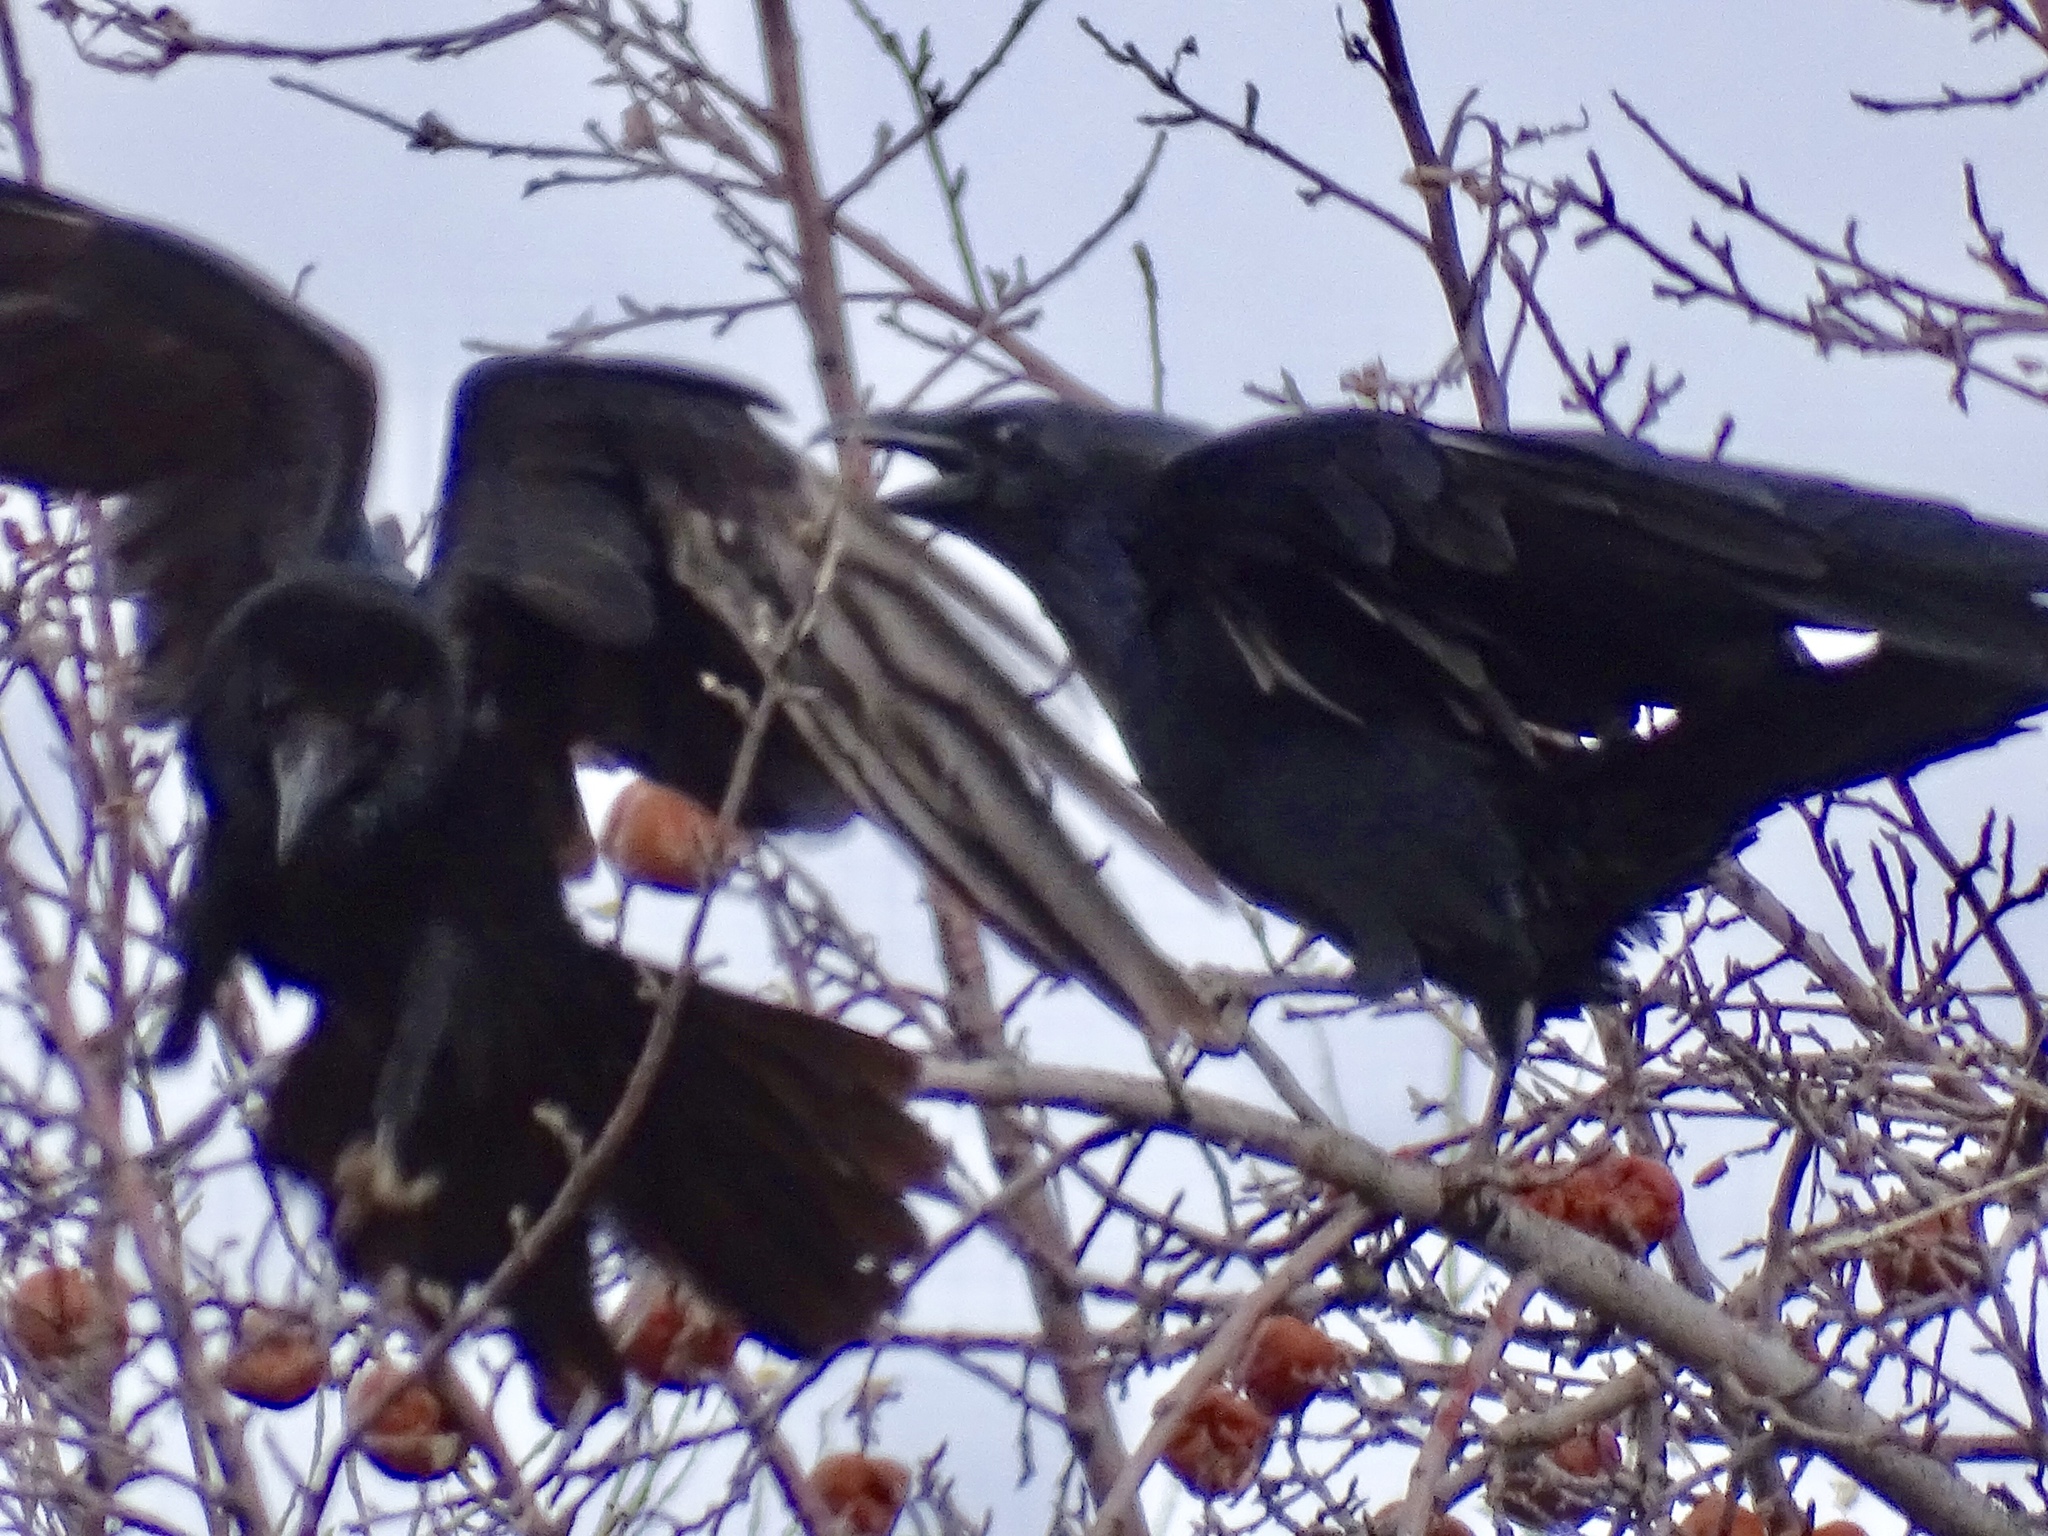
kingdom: Animalia
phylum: Chordata
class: Aves
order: Passeriformes
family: Corvidae
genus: Corvus
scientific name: Corvus corax
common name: Common raven
